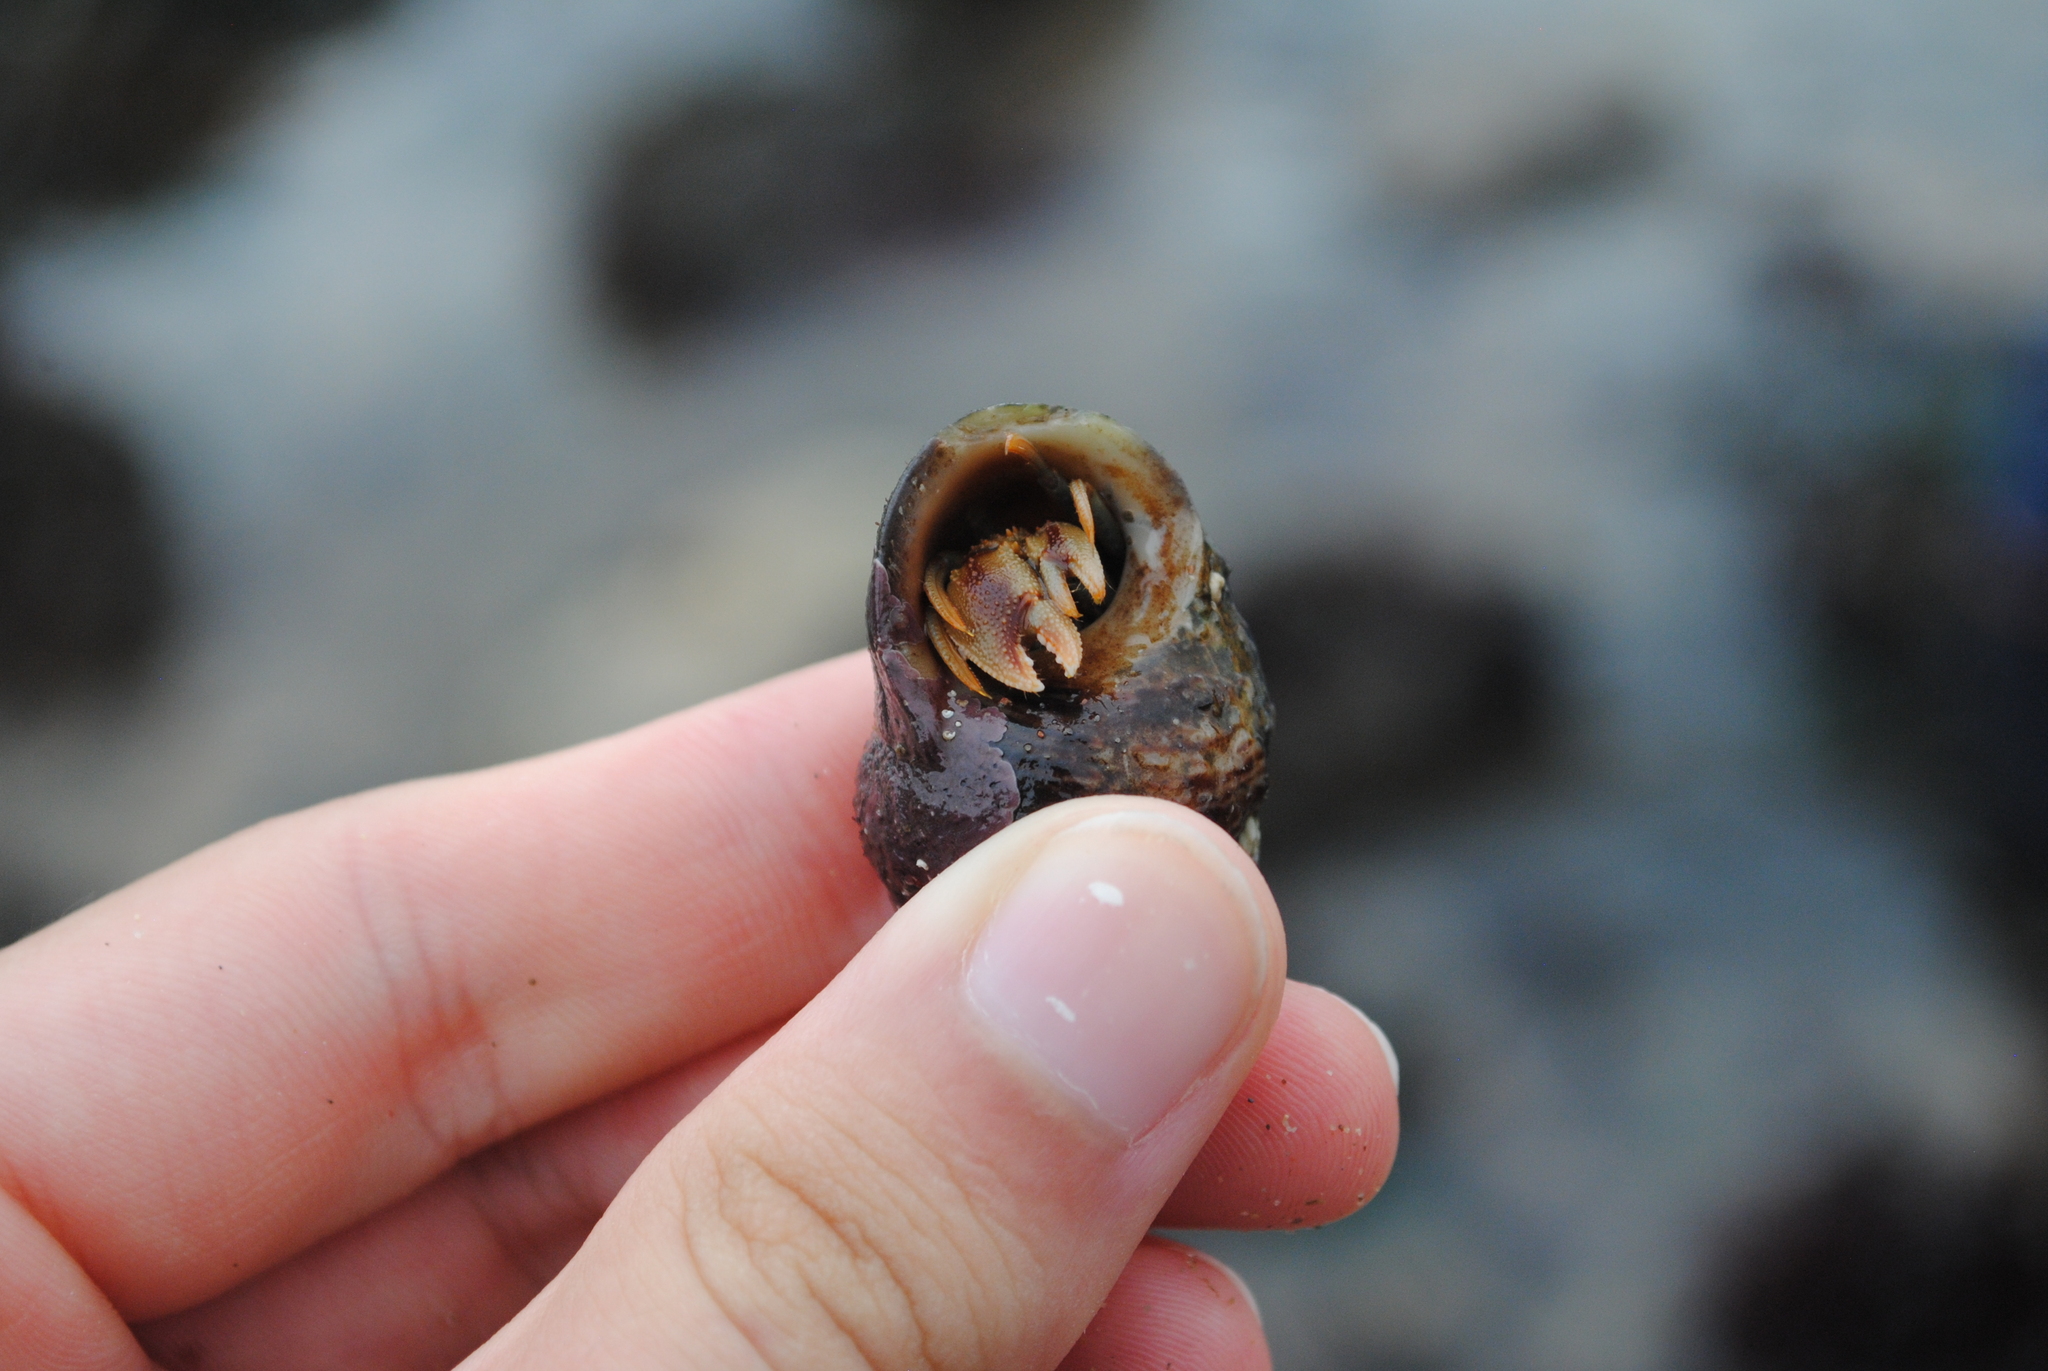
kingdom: Animalia
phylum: Arthropoda
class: Malacostraca
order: Decapoda
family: Paguridae
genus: Pagurus
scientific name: Pagurus bernhardus
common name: Hermit crab
